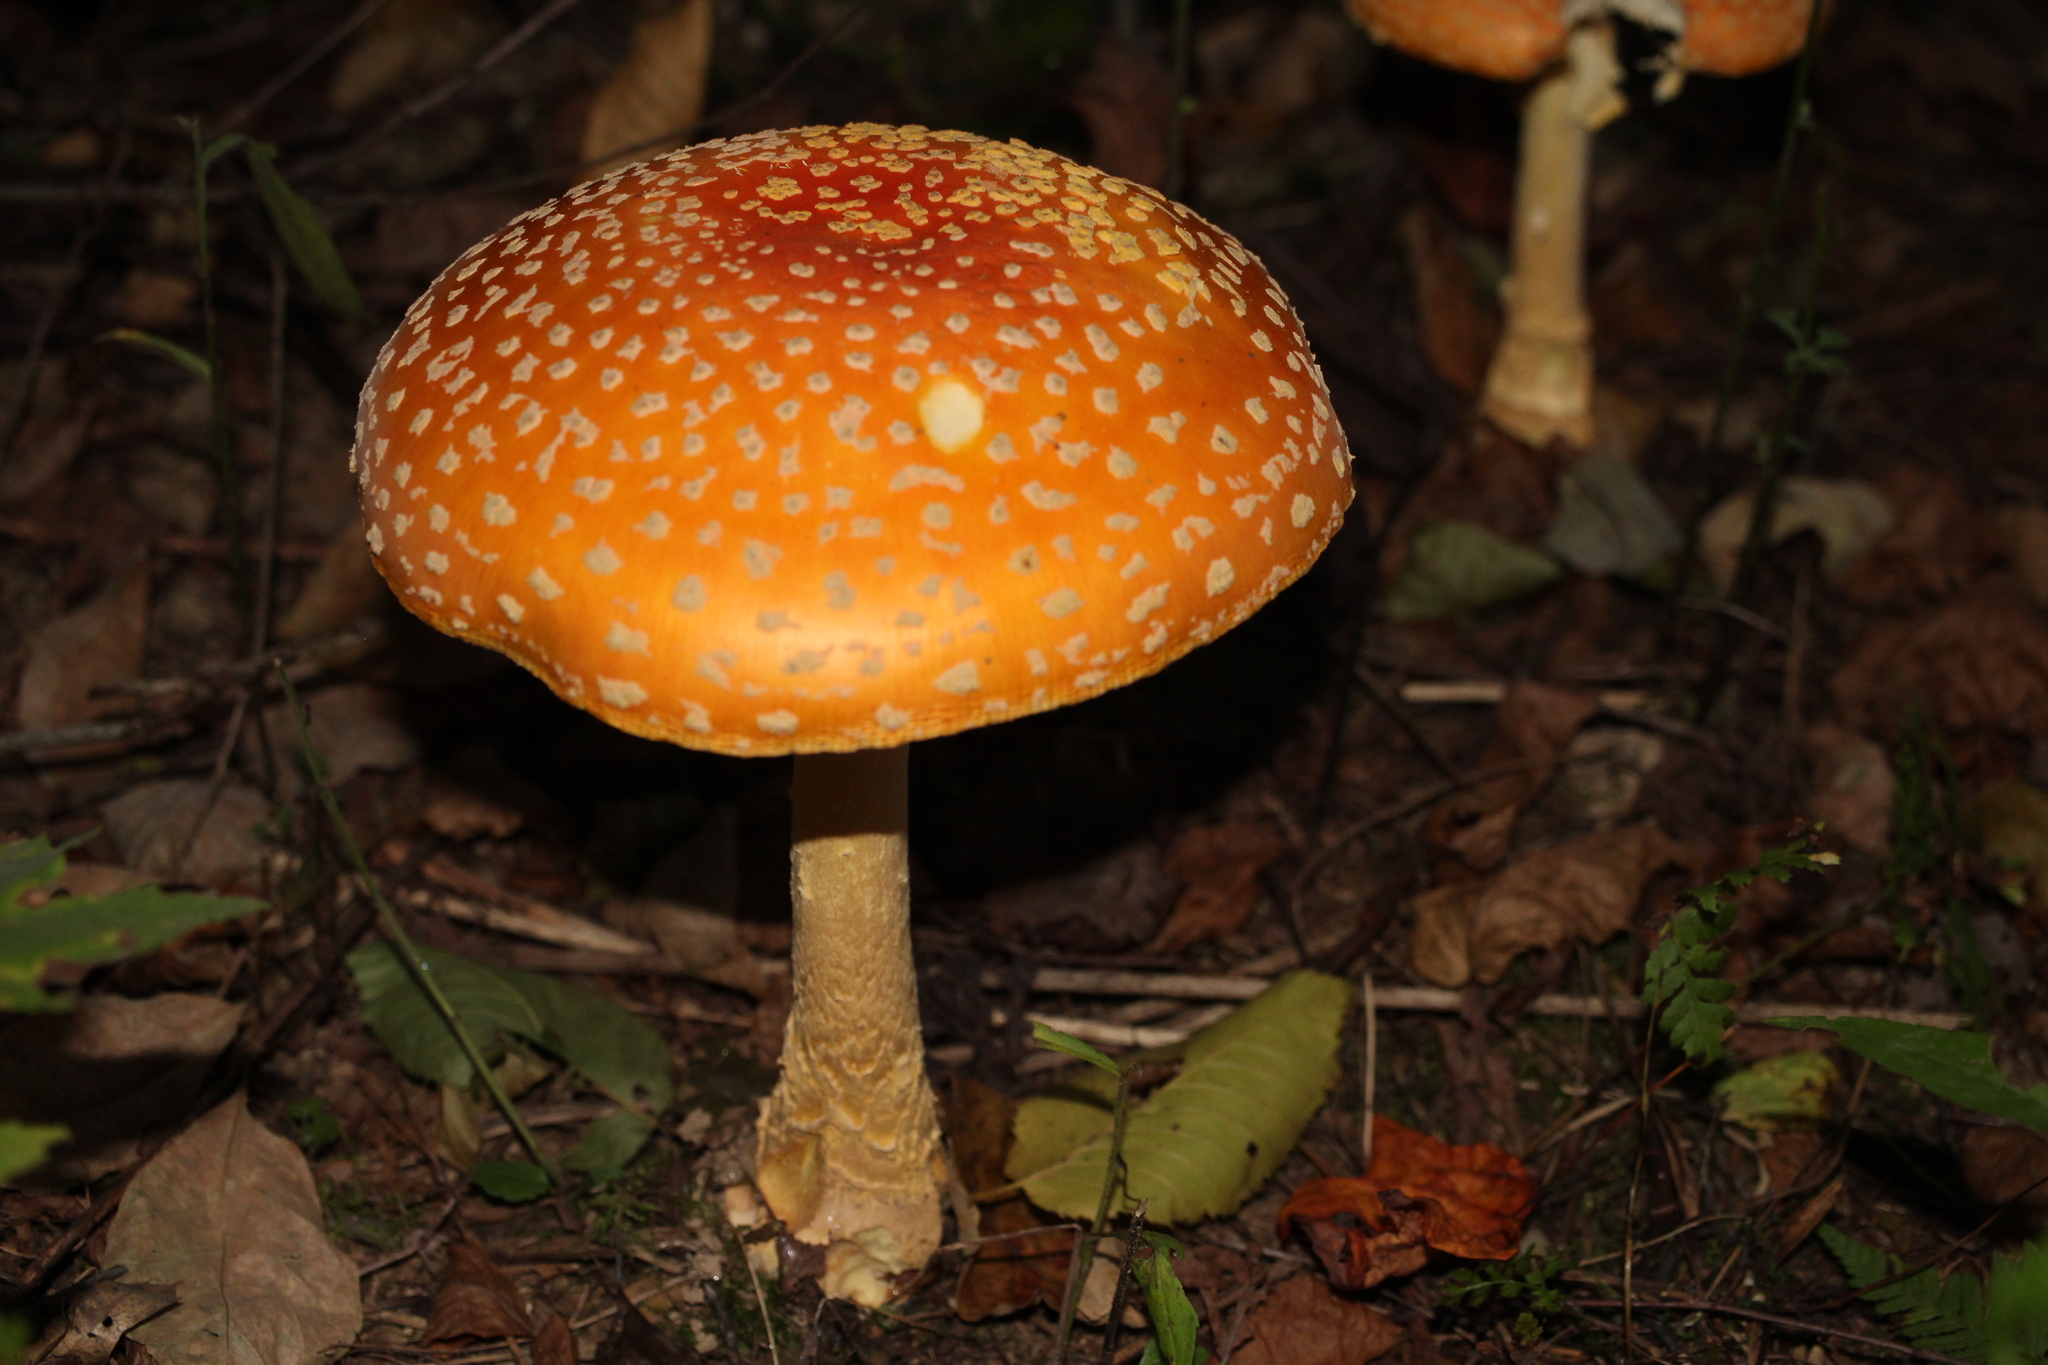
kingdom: Fungi
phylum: Basidiomycota
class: Agaricomycetes
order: Agaricales
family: Amanitaceae
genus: Amanita
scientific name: Amanita muscaria
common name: Fly agaric
